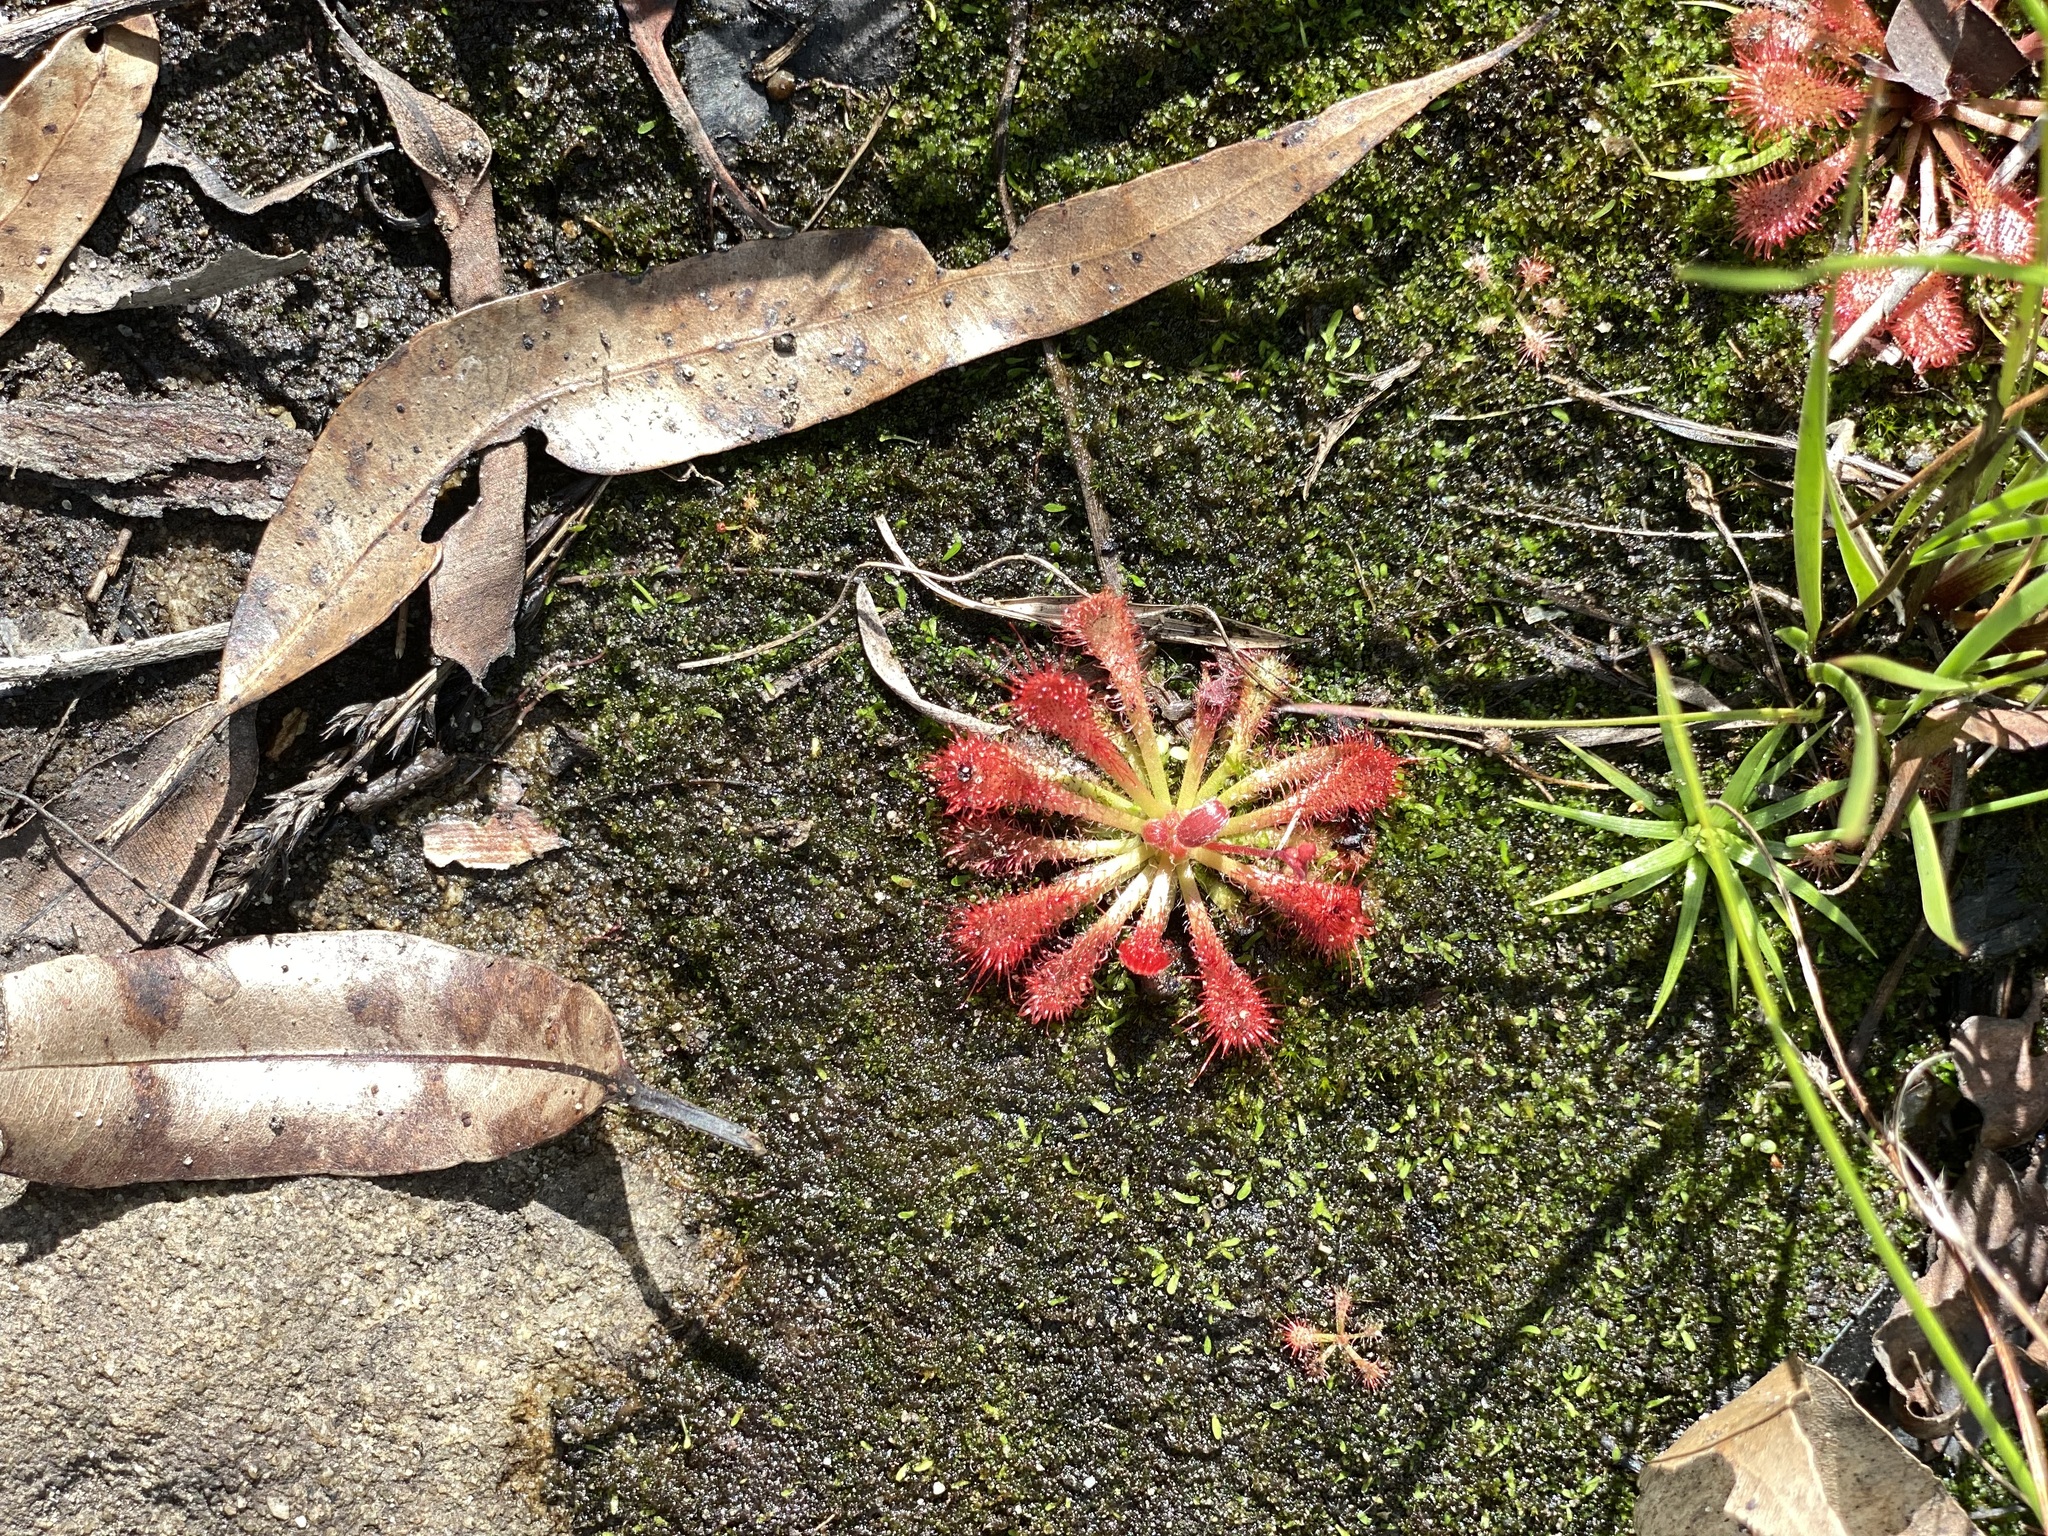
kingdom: Plantae
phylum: Tracheophyta
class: Magnoliopsida
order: Caryophyllales
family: Droseraceae
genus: Drosera
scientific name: Drosera spatulata
